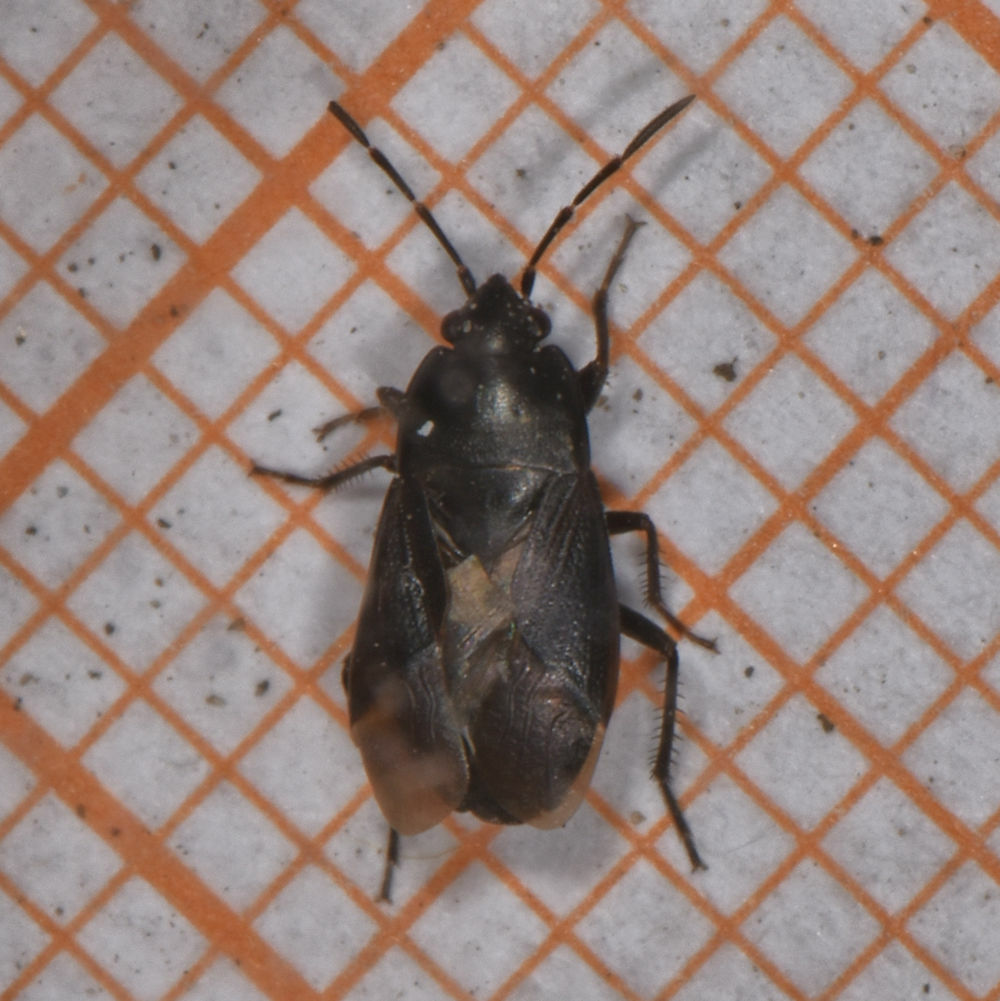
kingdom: Animalia
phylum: Arthropoda
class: Insecta
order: Hemiptera
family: Rhyparochromidae
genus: Atrazonotus
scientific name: Atrazonotus umbrosus
